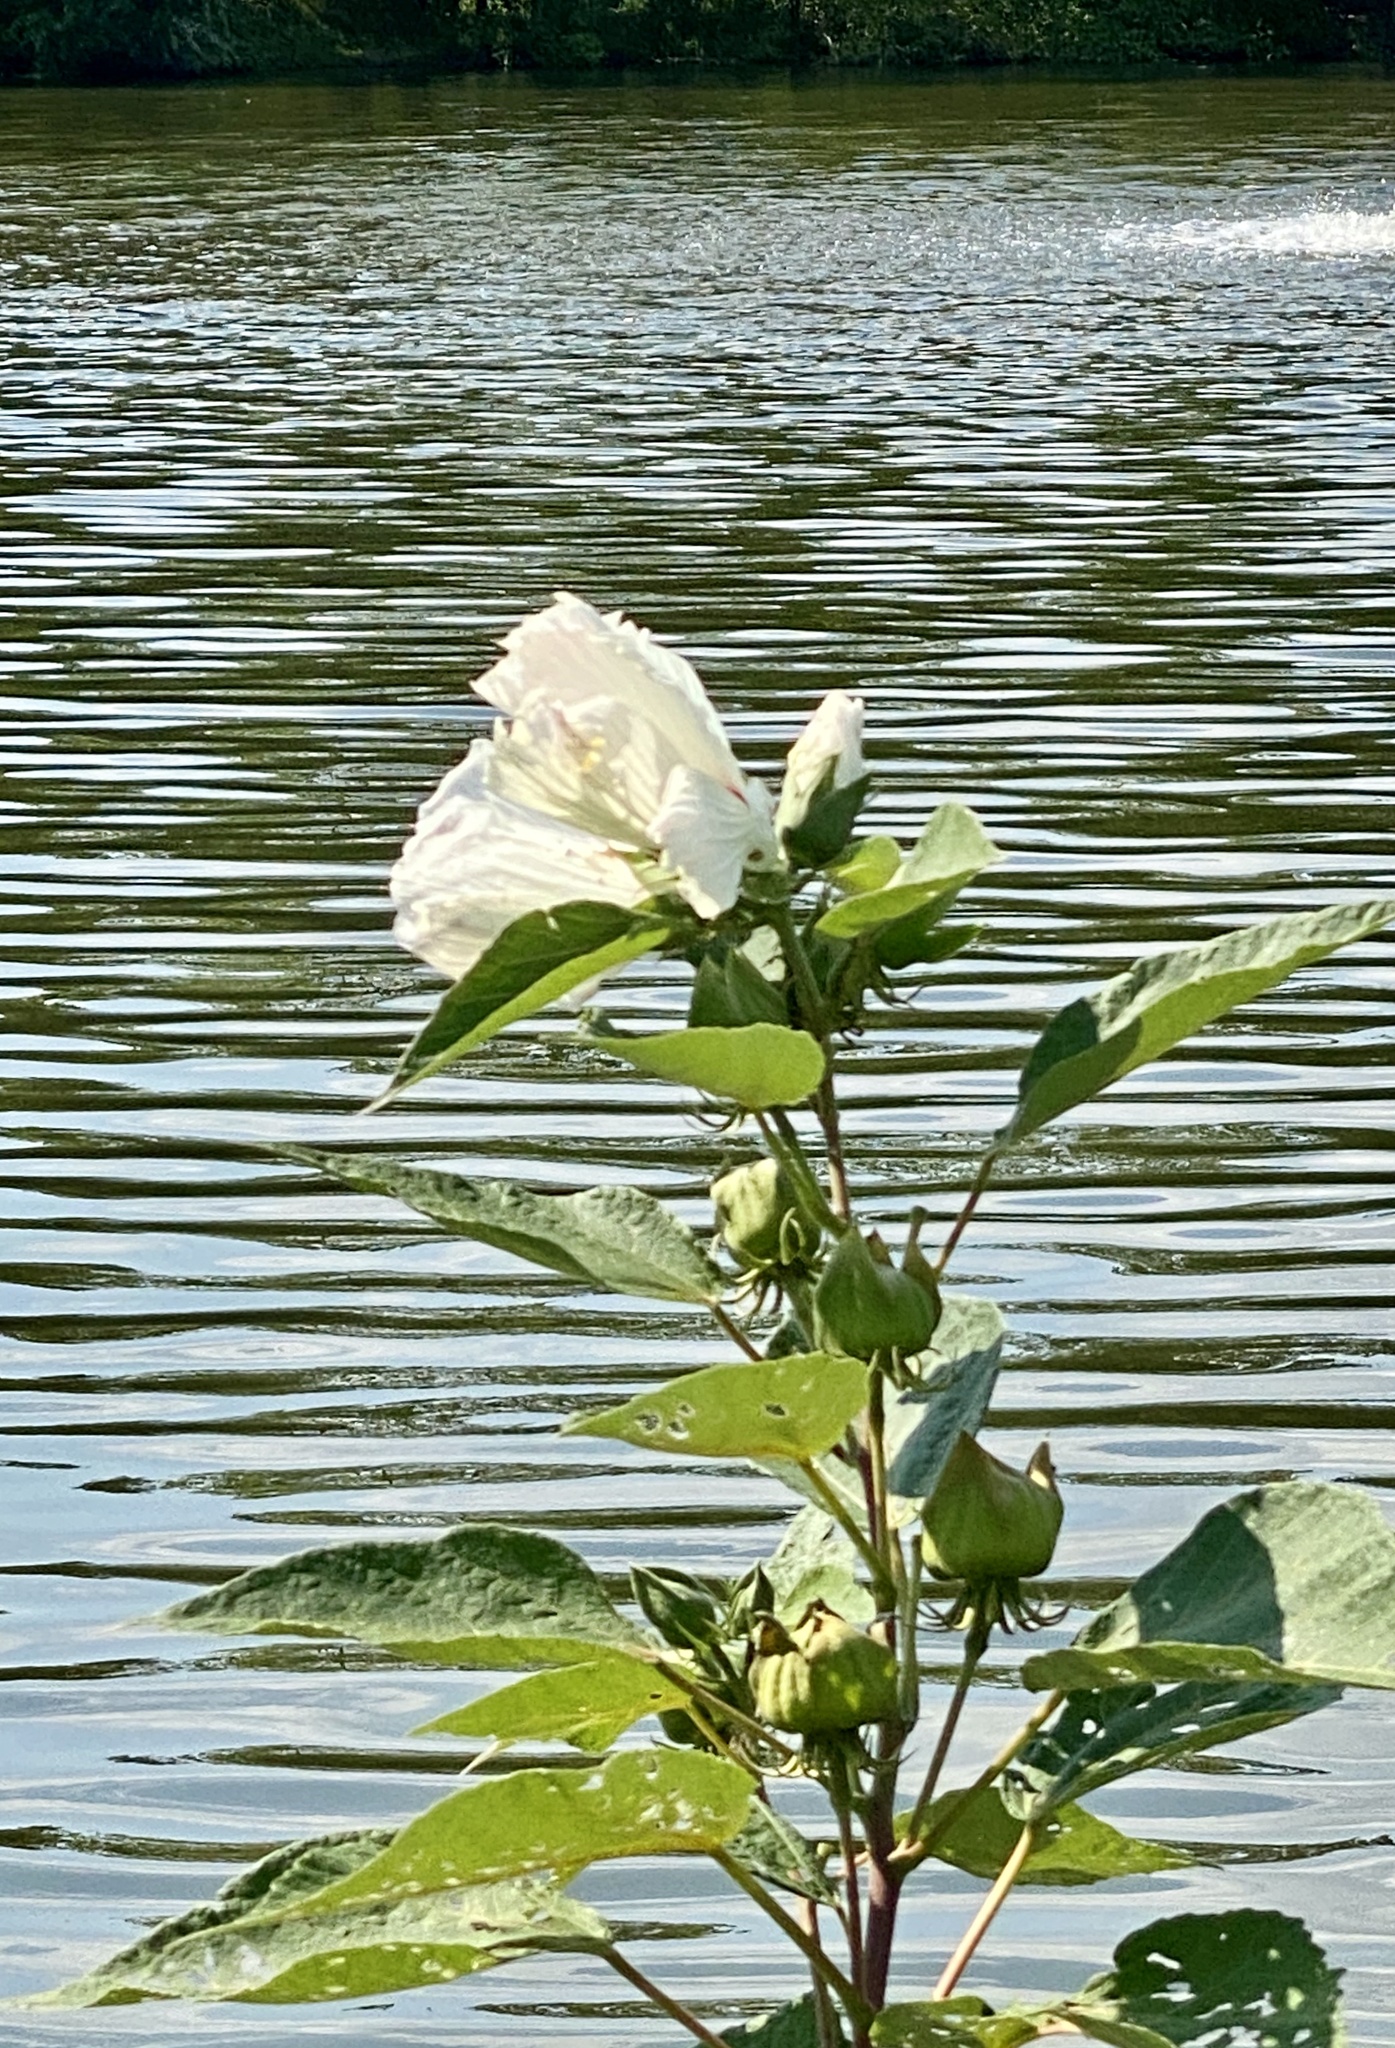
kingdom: Plantae
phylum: Tracheophyta
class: Magnoliopsida
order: Malvales
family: Malvaceae
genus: Hibiscus
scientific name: Hibiscus moscheutos
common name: Common rose-mallow
